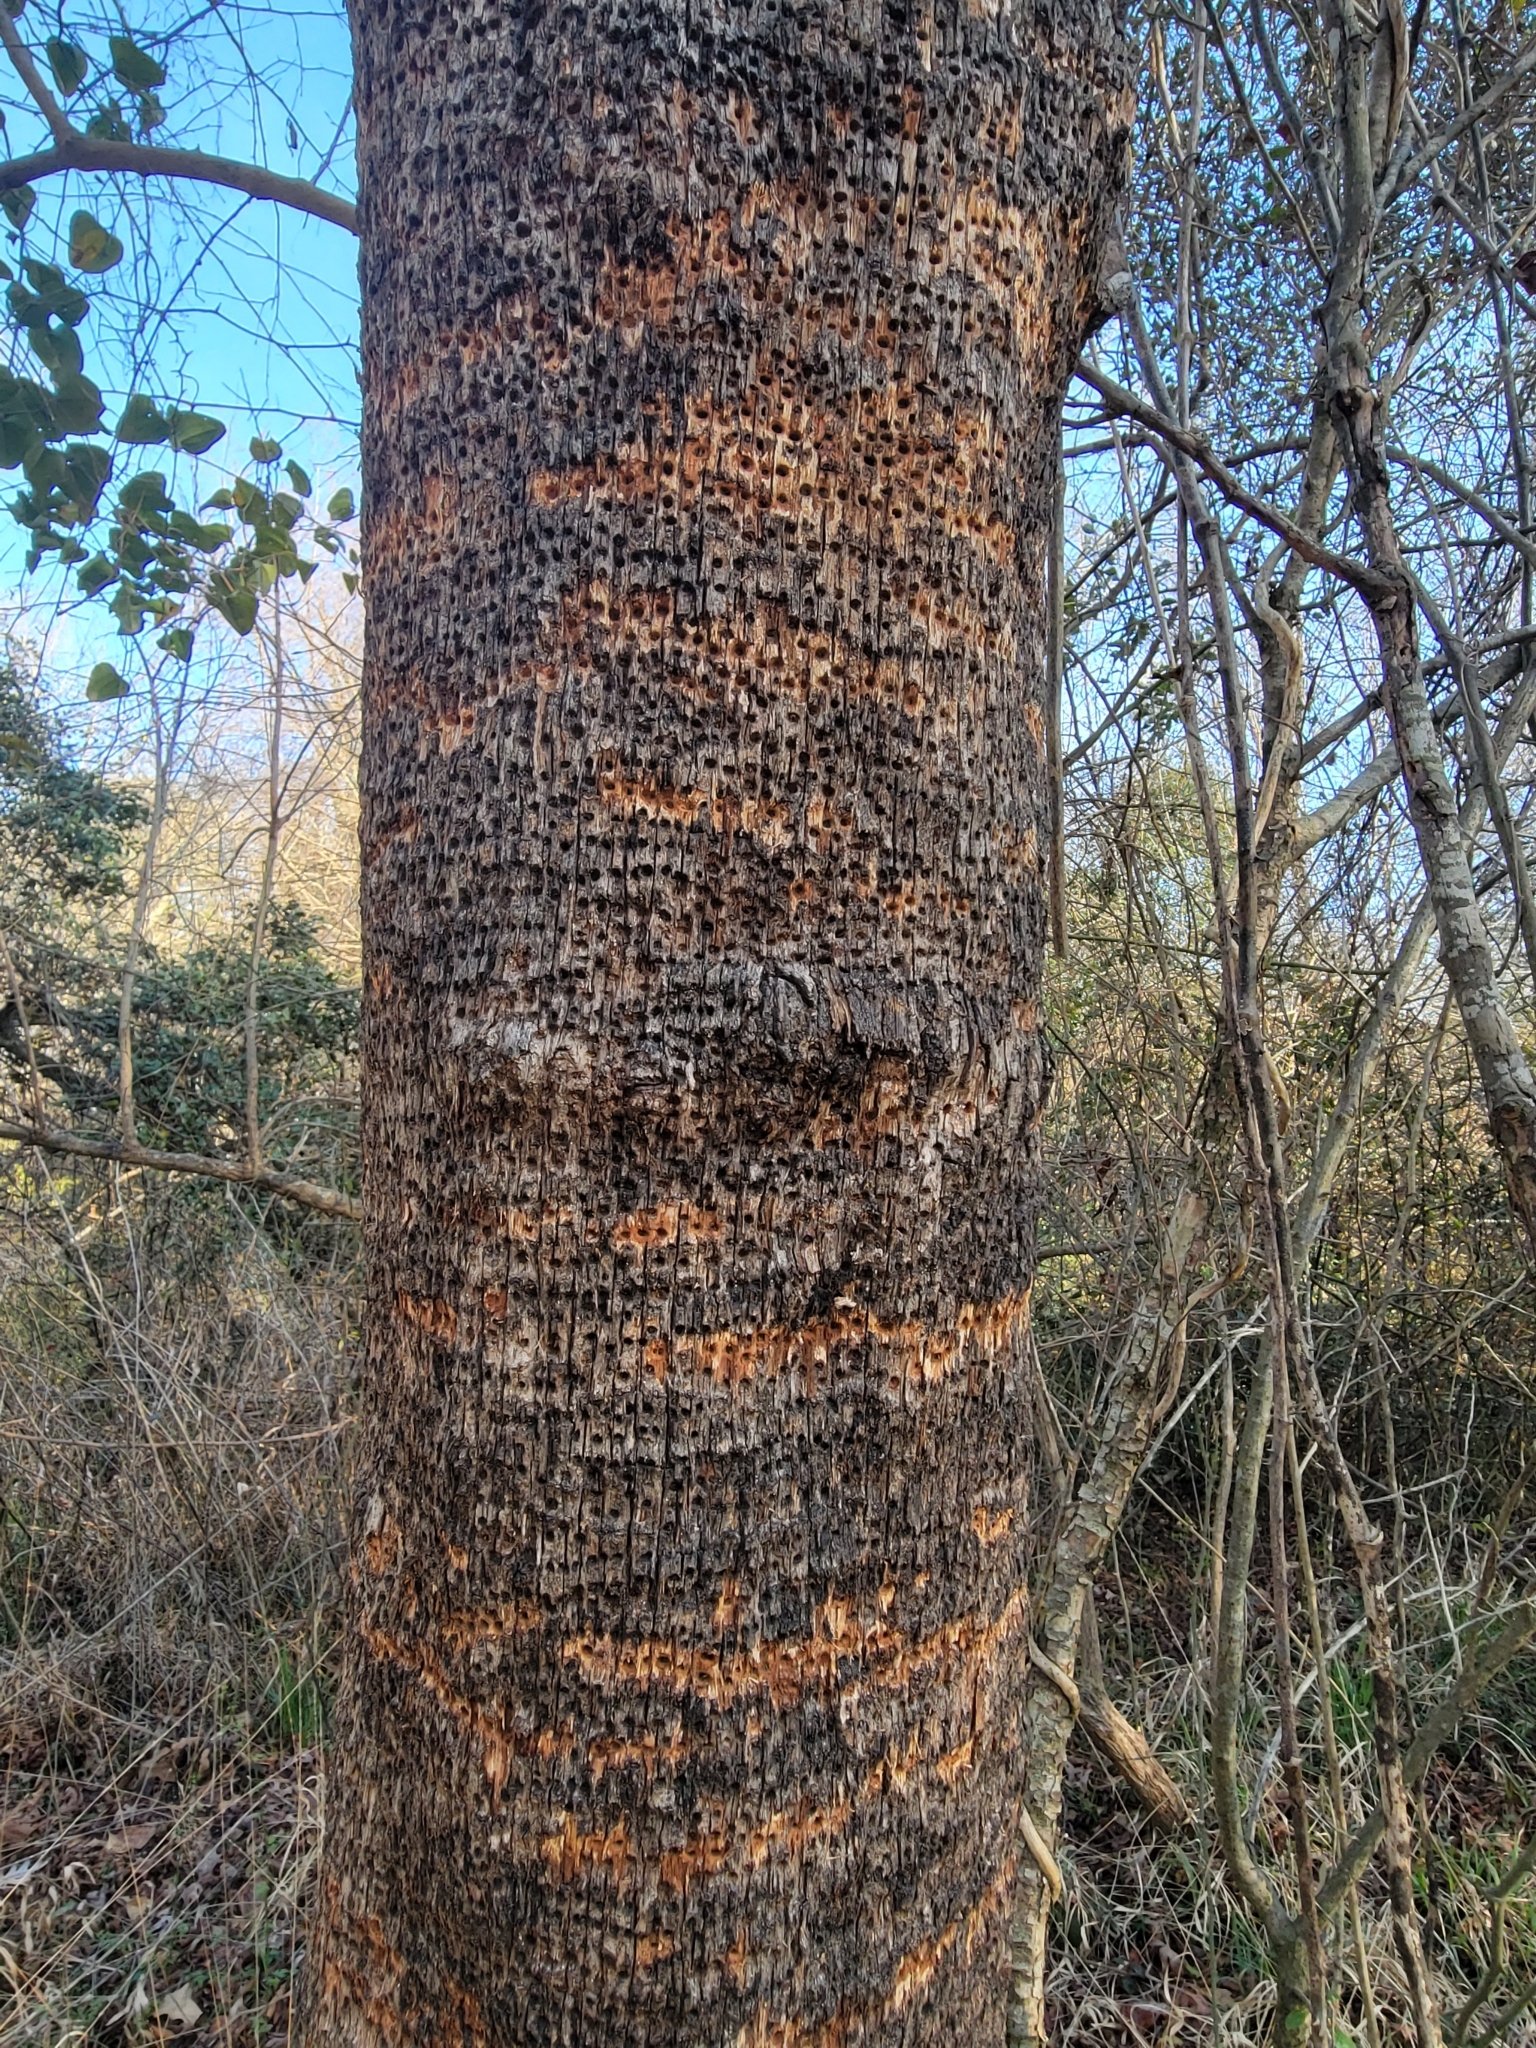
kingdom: Animalia
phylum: Chordata
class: Aves
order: Piciformes
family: Picidae
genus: Sphyrapicus
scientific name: Sphyrapicus varius
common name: Yellow-bellied sapsucker
